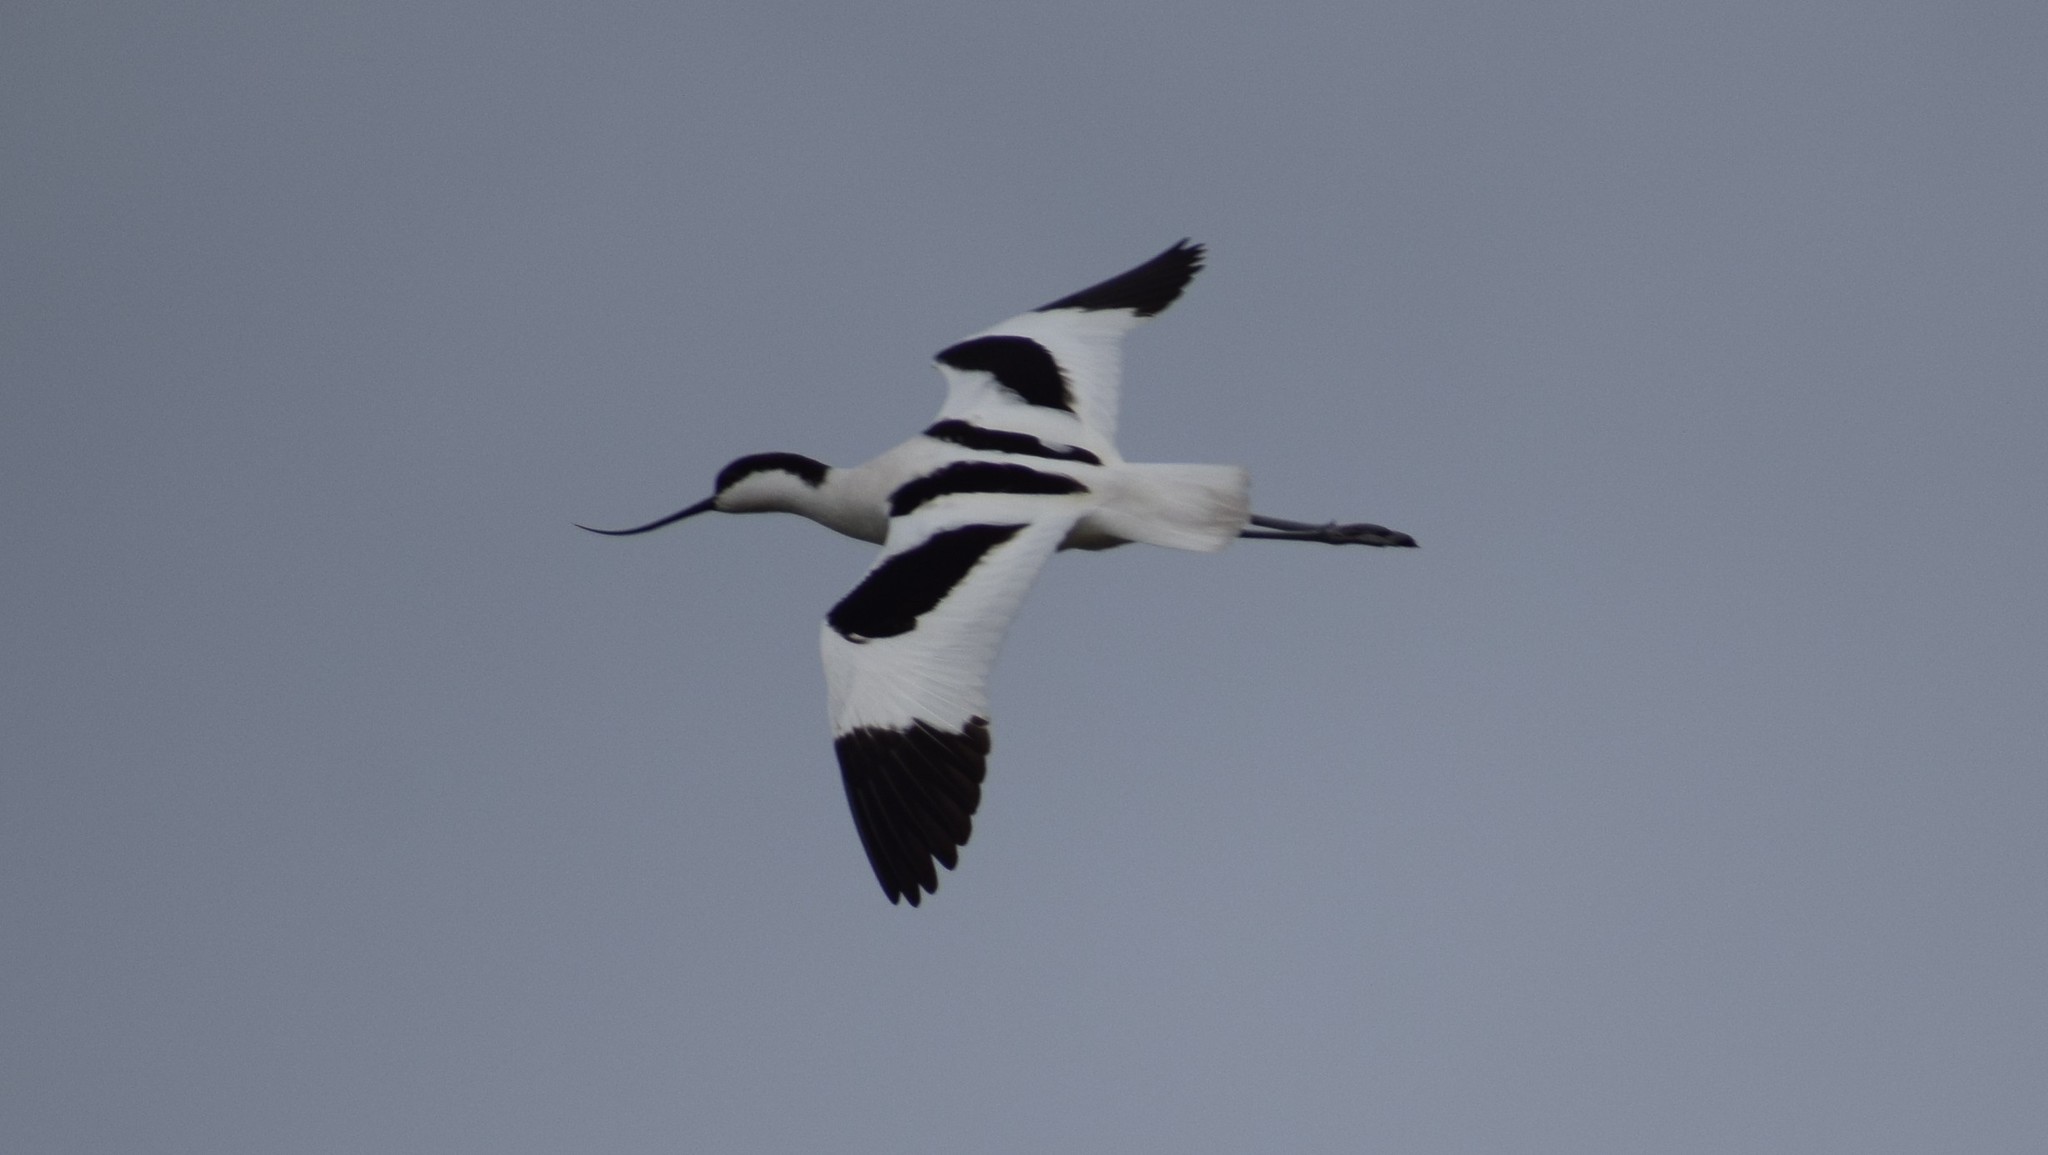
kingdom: Animalia
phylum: Chordata
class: Aves
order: Charadriiformes
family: Recurvirostridae
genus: Recurvirostra
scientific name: Recurvirostra avosetta
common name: Pied avocet
